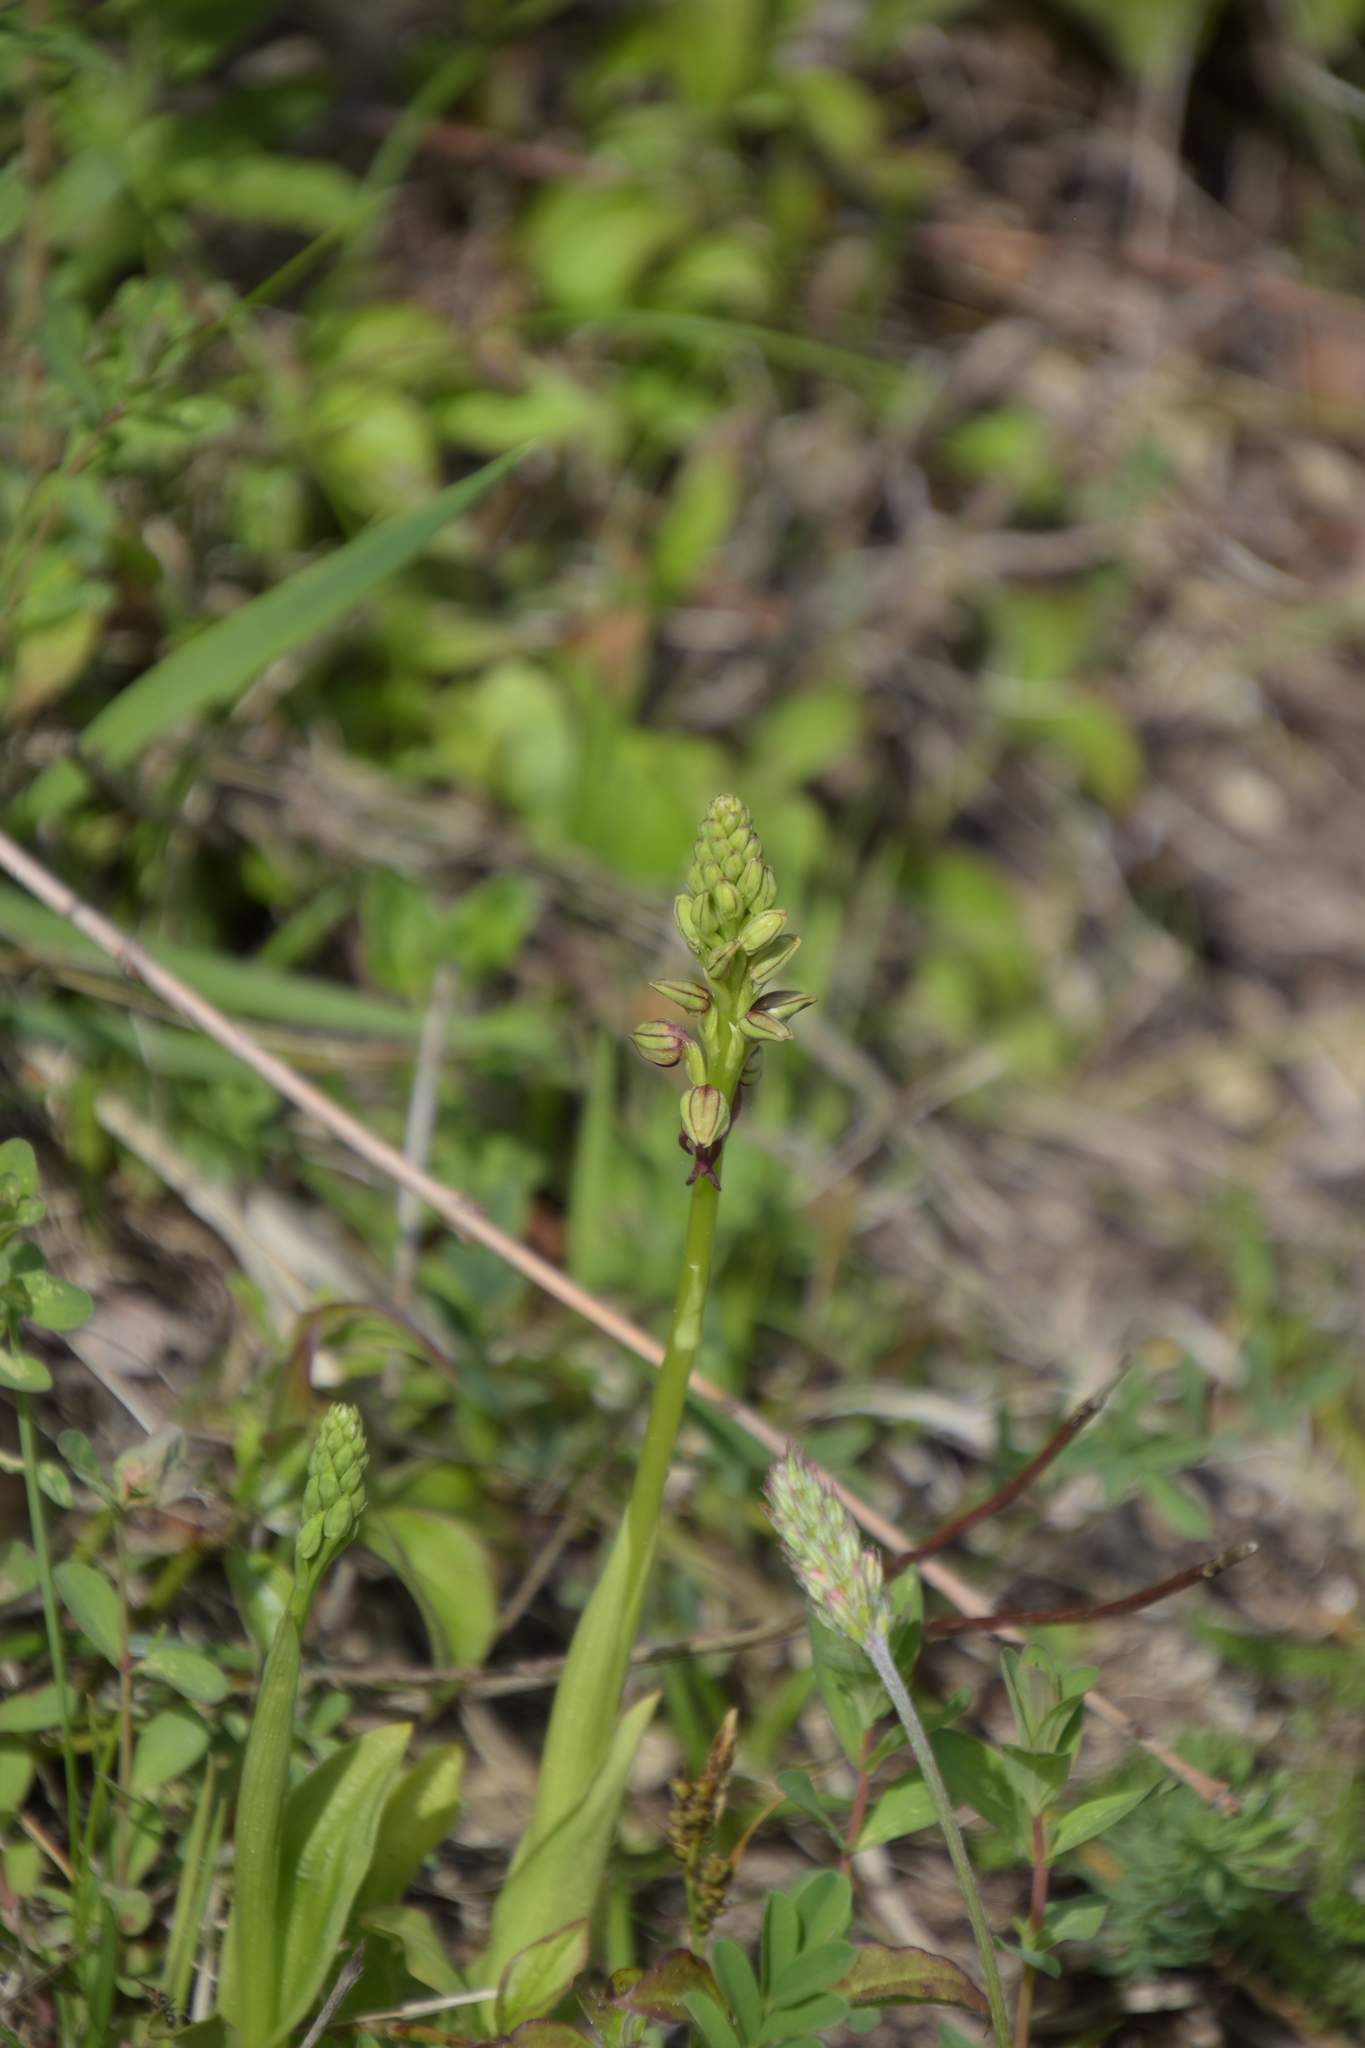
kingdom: Plantae
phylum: Tracheophyta
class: Liliopsida
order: Asparagales
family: Orchidaceae
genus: Orchis
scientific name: Orchis anthropophora
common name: Man orchid
